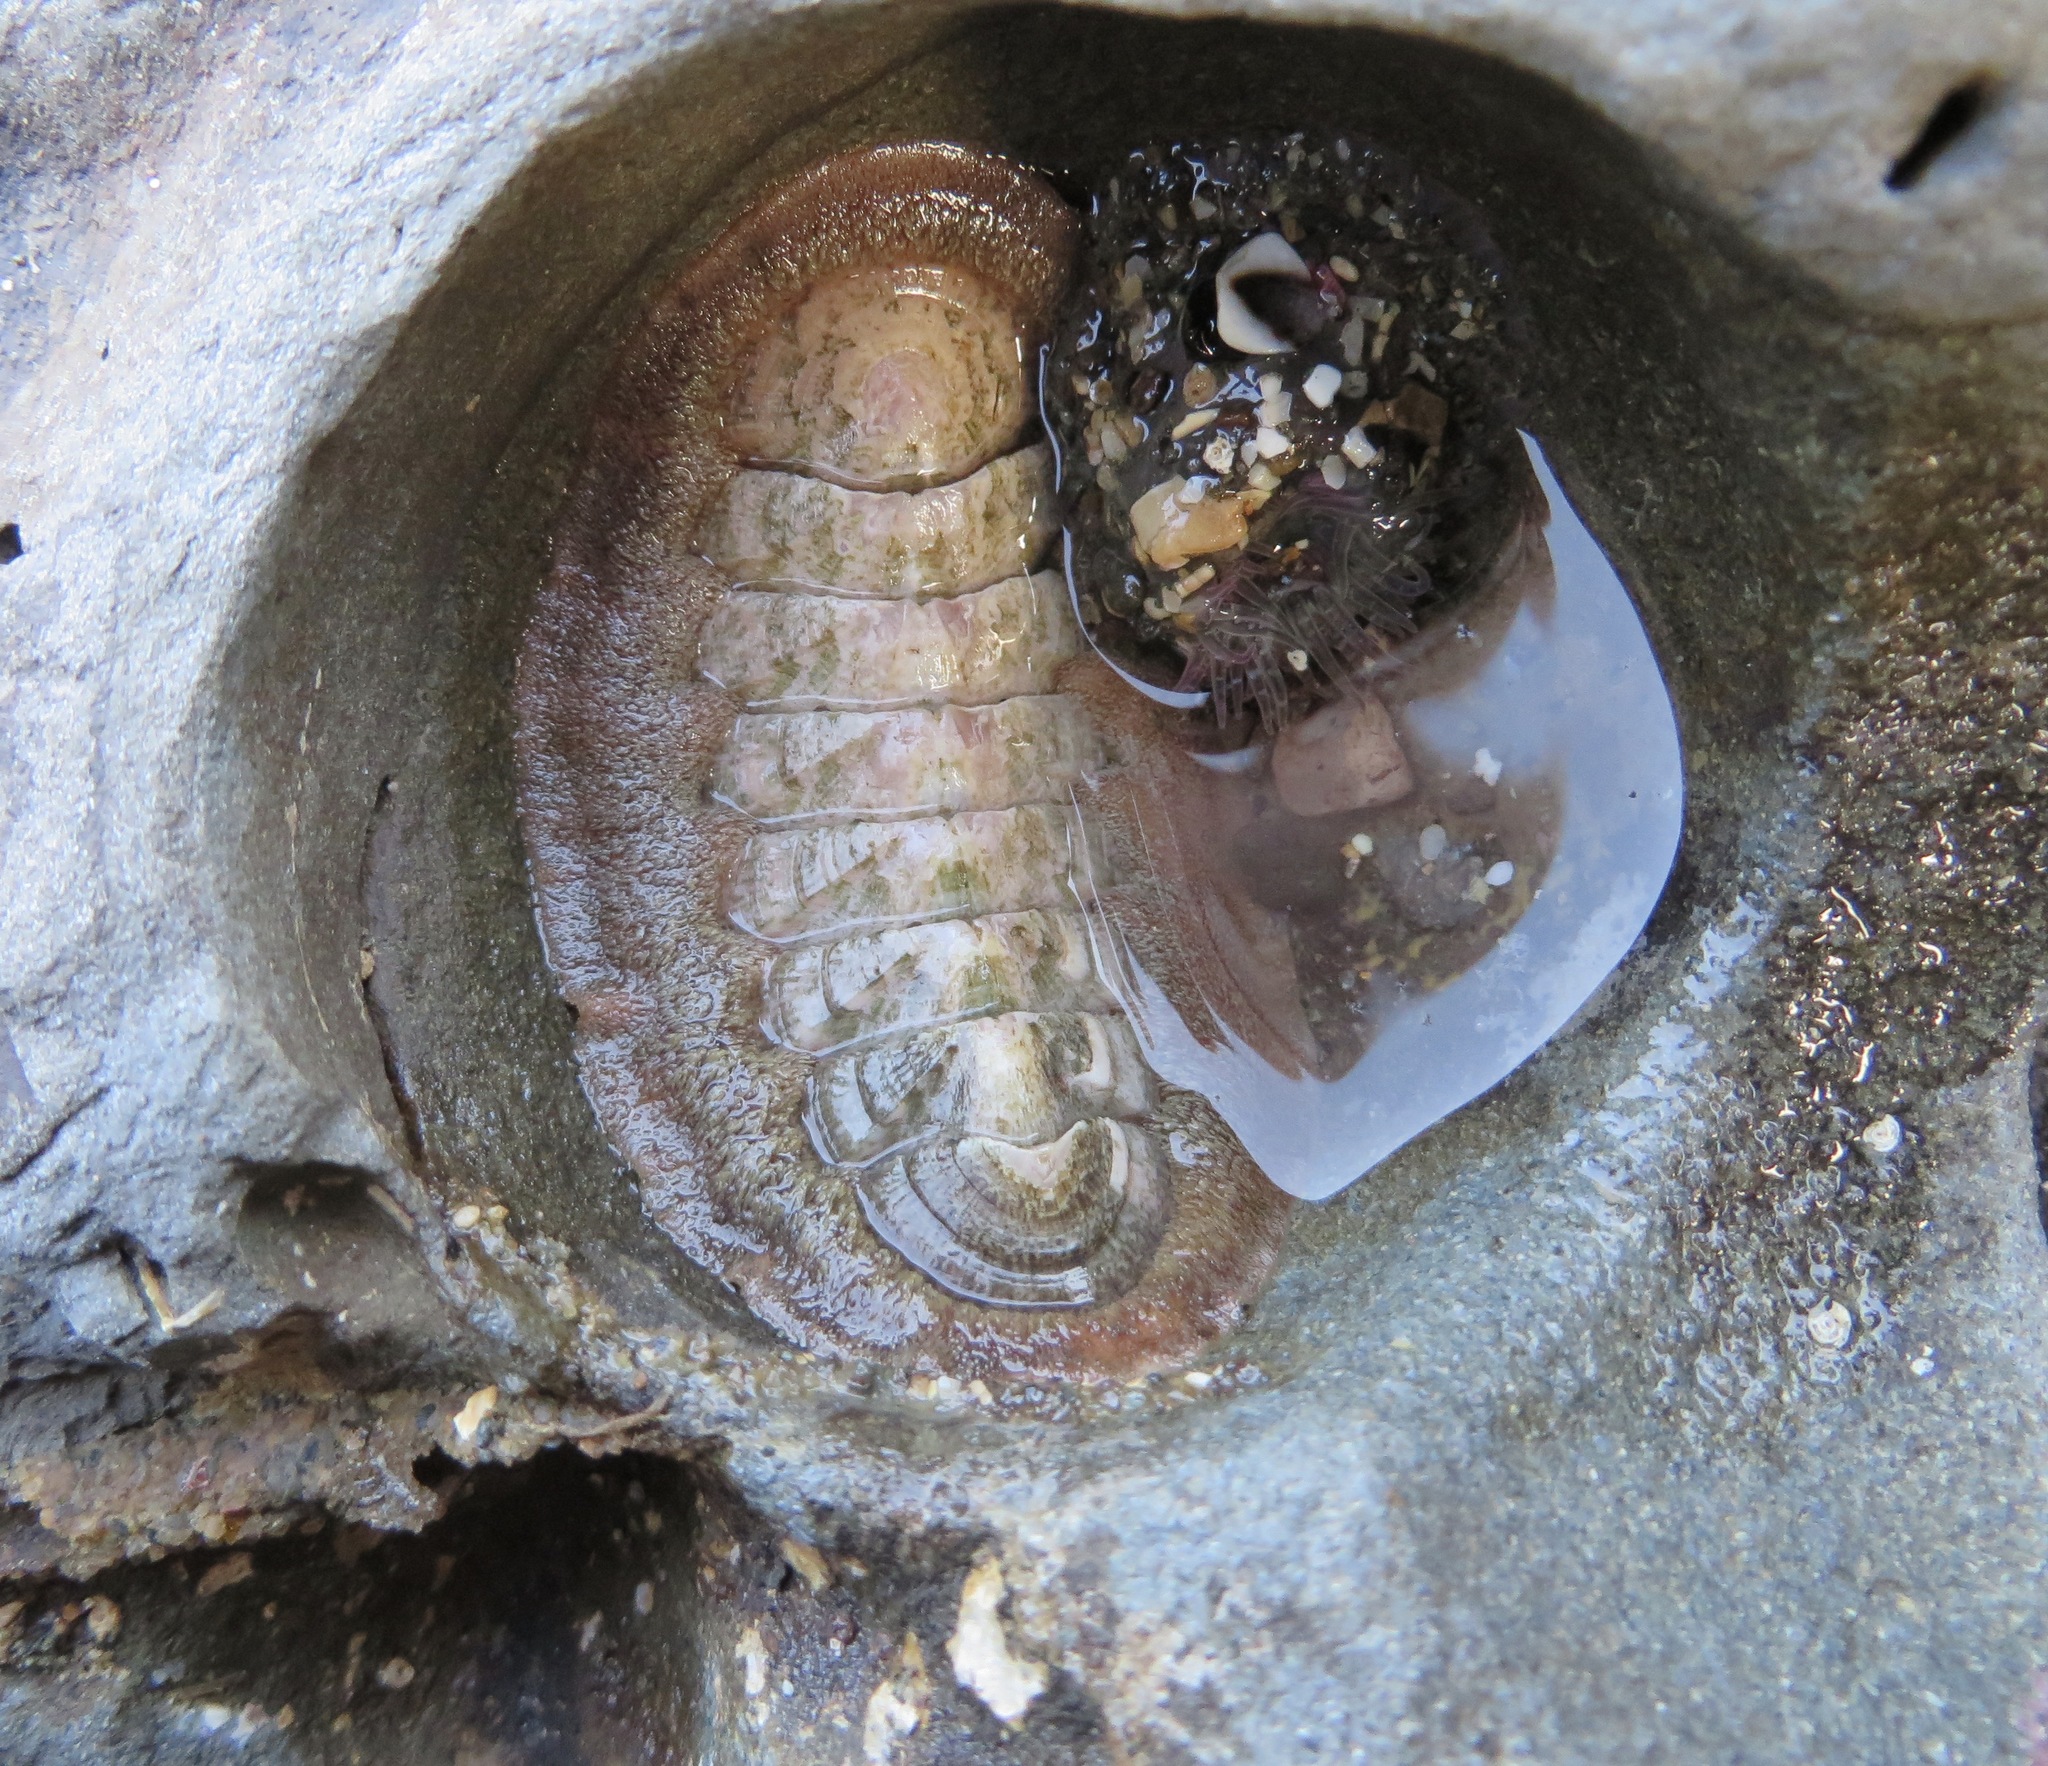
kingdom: Animalia
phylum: Mollusca
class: Polyplacophora
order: Chitonida
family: Ischnochitonidae
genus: Stenoplax
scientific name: Stenoplax conspicua
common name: Conspicuous chiton
